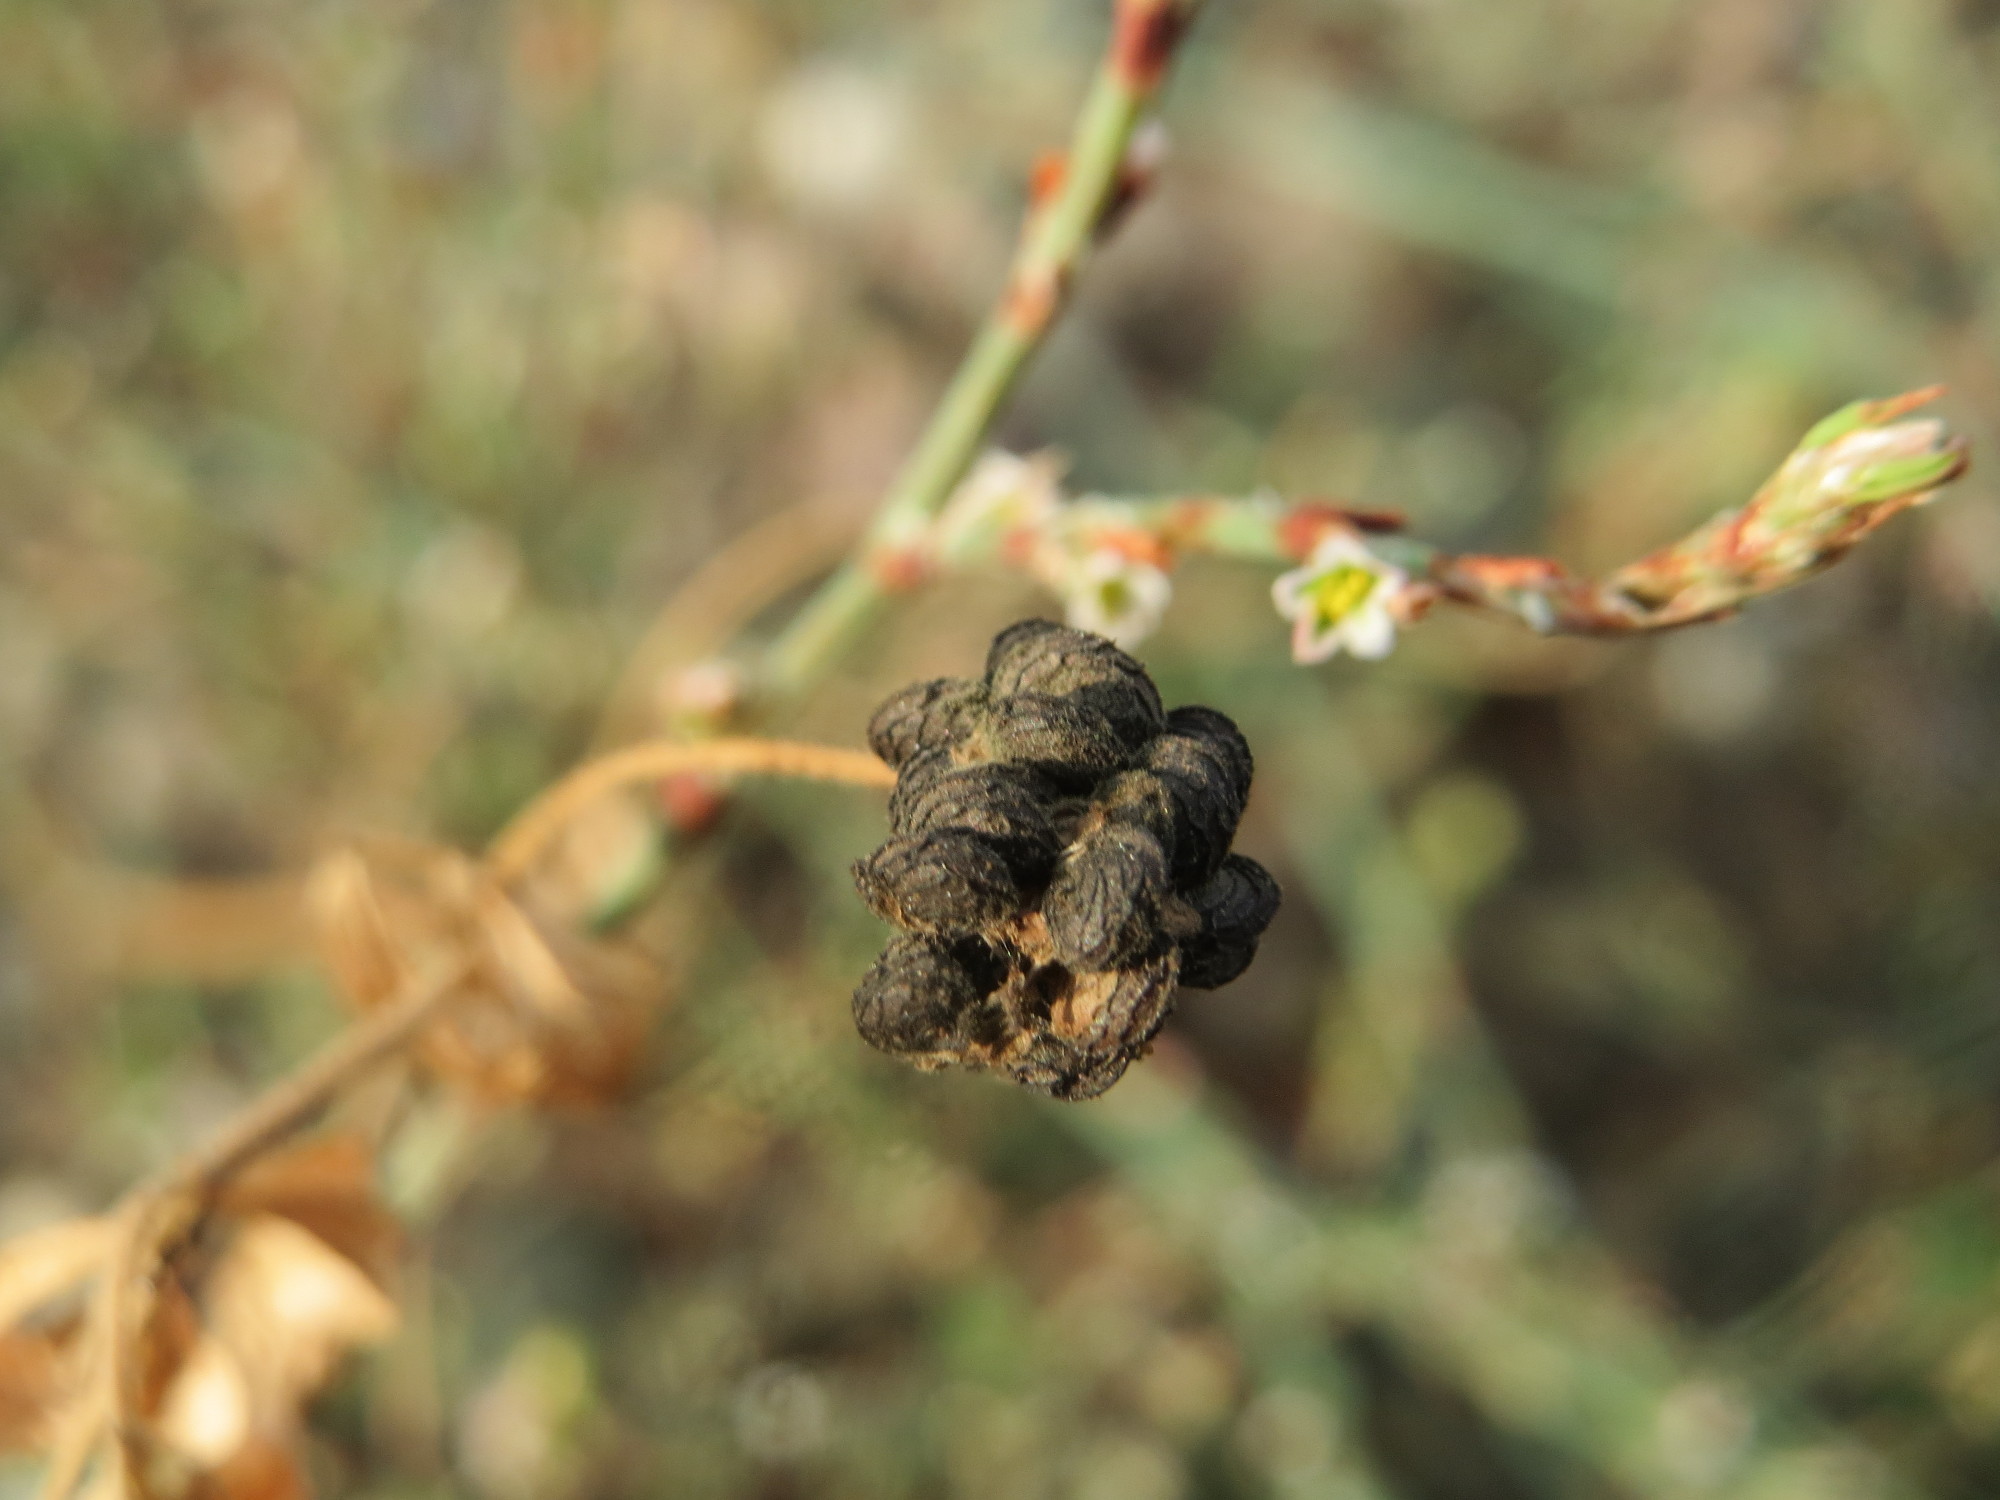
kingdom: Plantae
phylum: Tracheophyta
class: Magnoliopsida
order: Fabales
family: Fabaceae
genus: Medicago
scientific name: Medicago lupulina
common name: Black medick
